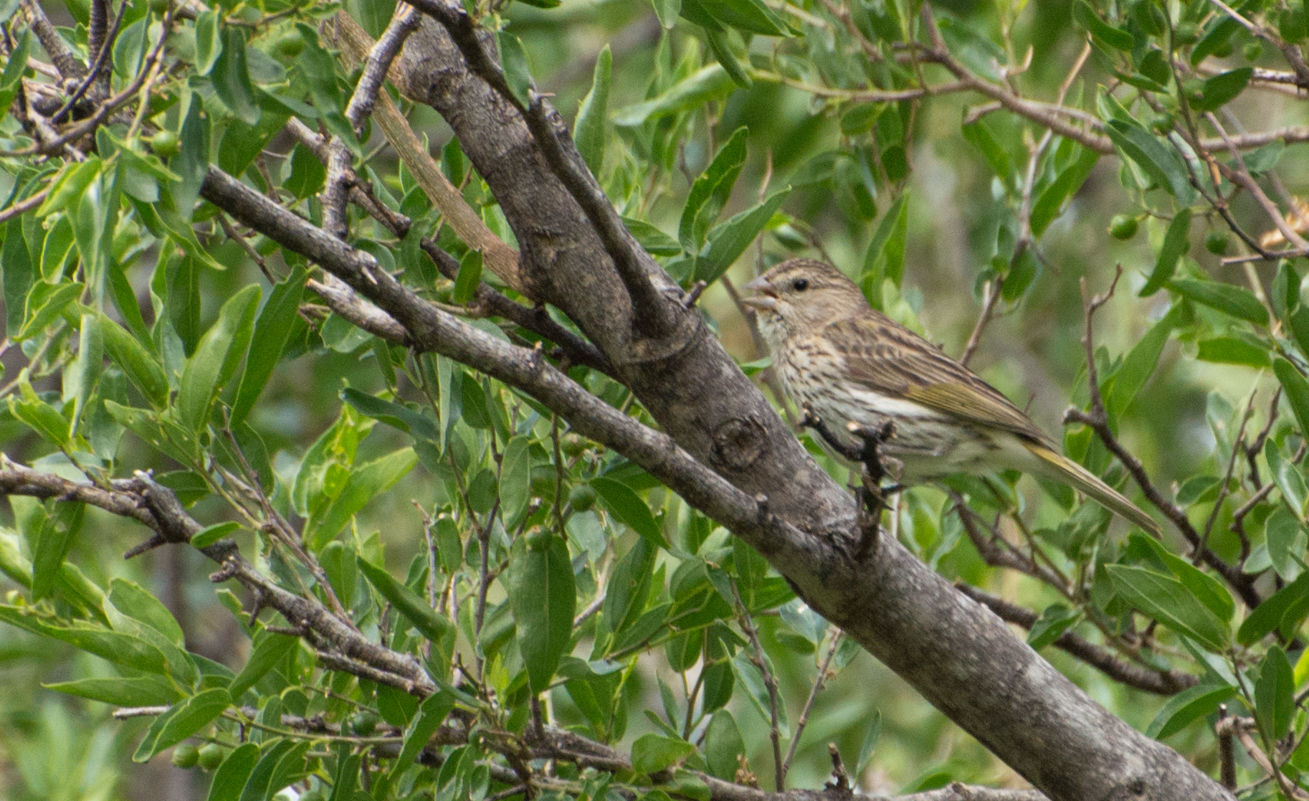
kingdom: Animalia
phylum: Chordata
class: Aves
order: Passeriformes
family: Thraupidae
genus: Sicalis
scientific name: Sicalis flaveola
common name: Saffron finch
